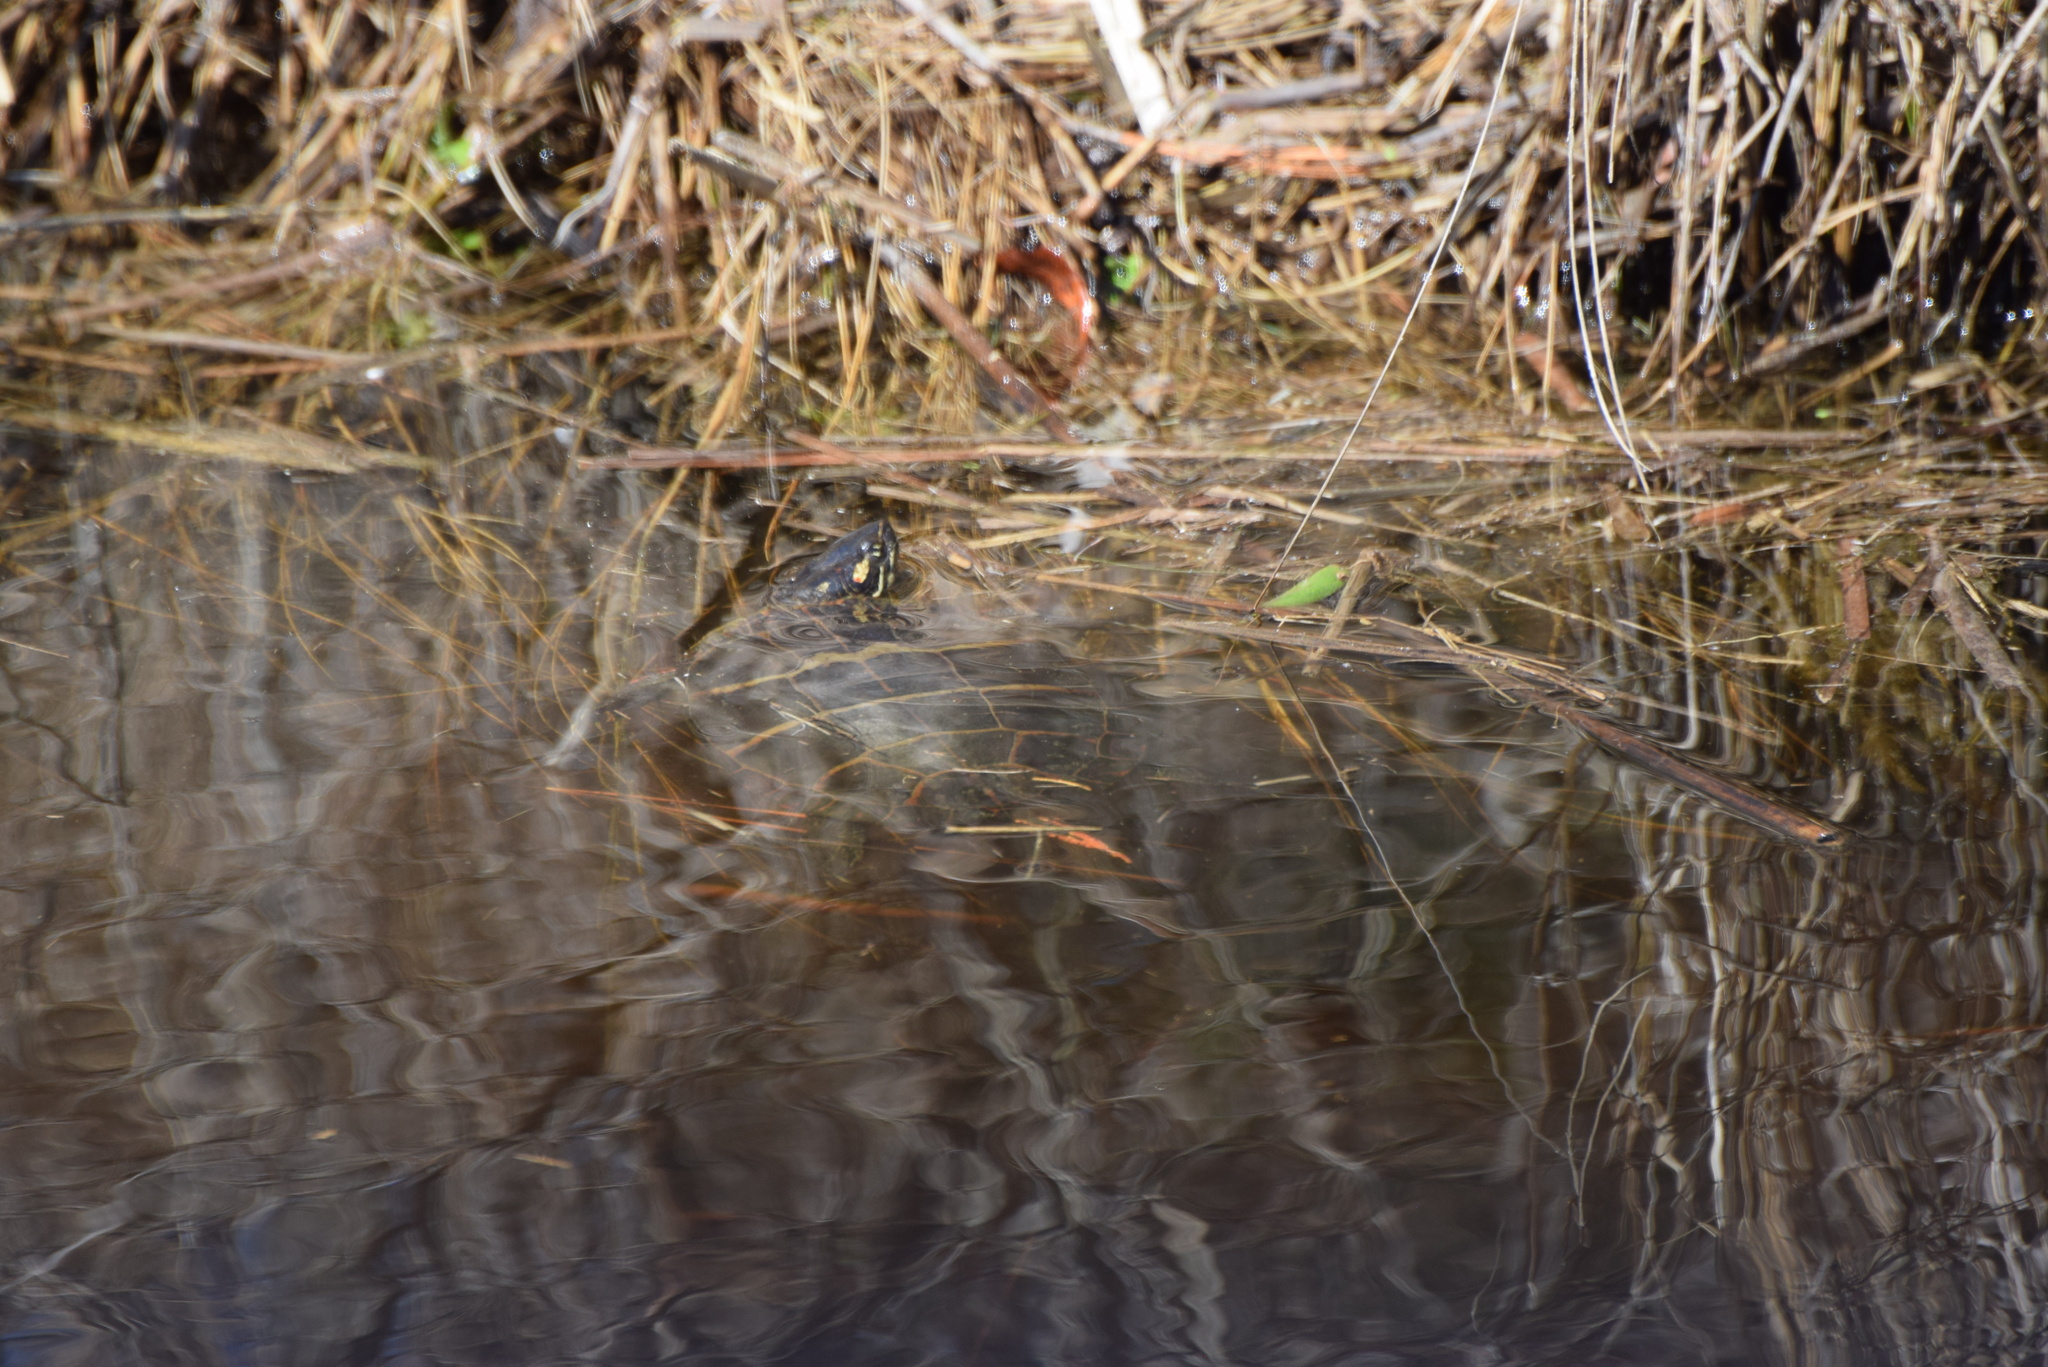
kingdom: Animalia
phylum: Chordata
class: Testudines
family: Emydidae
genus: Chrysemys
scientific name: Chrysemys picta
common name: Painted turtle
